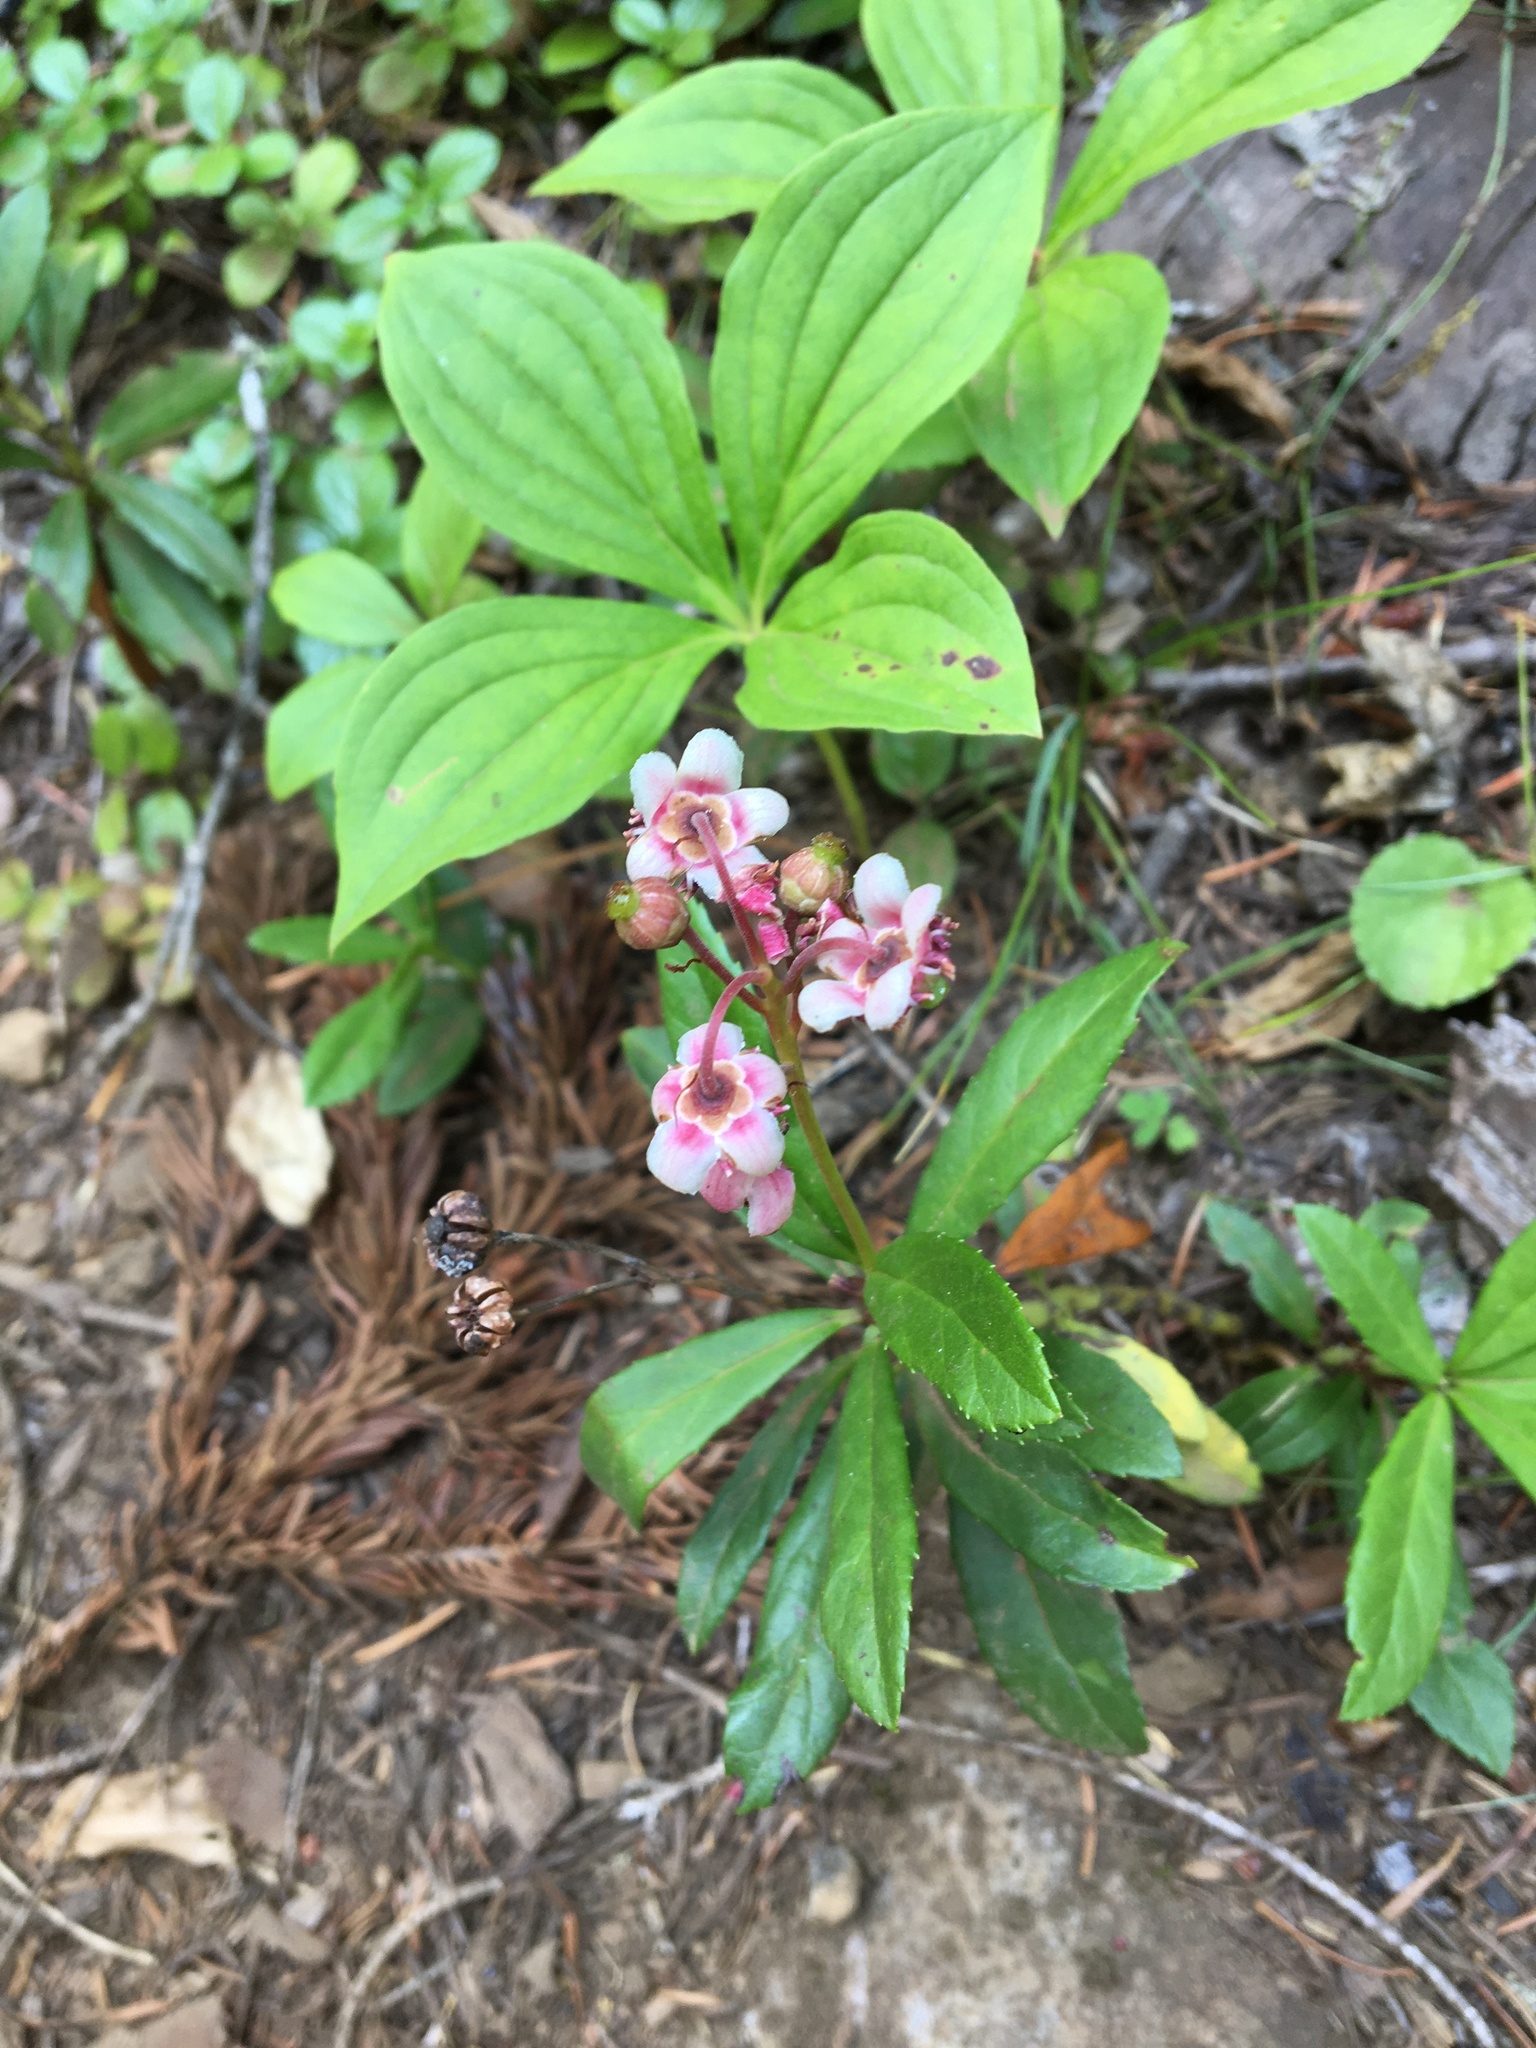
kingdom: Plantae
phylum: Tracheophyta
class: Magnoliopsida
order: Ericales
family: Ericaceae
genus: Chimaphila
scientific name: Chimaphila umbellata
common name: Pipsissewa
